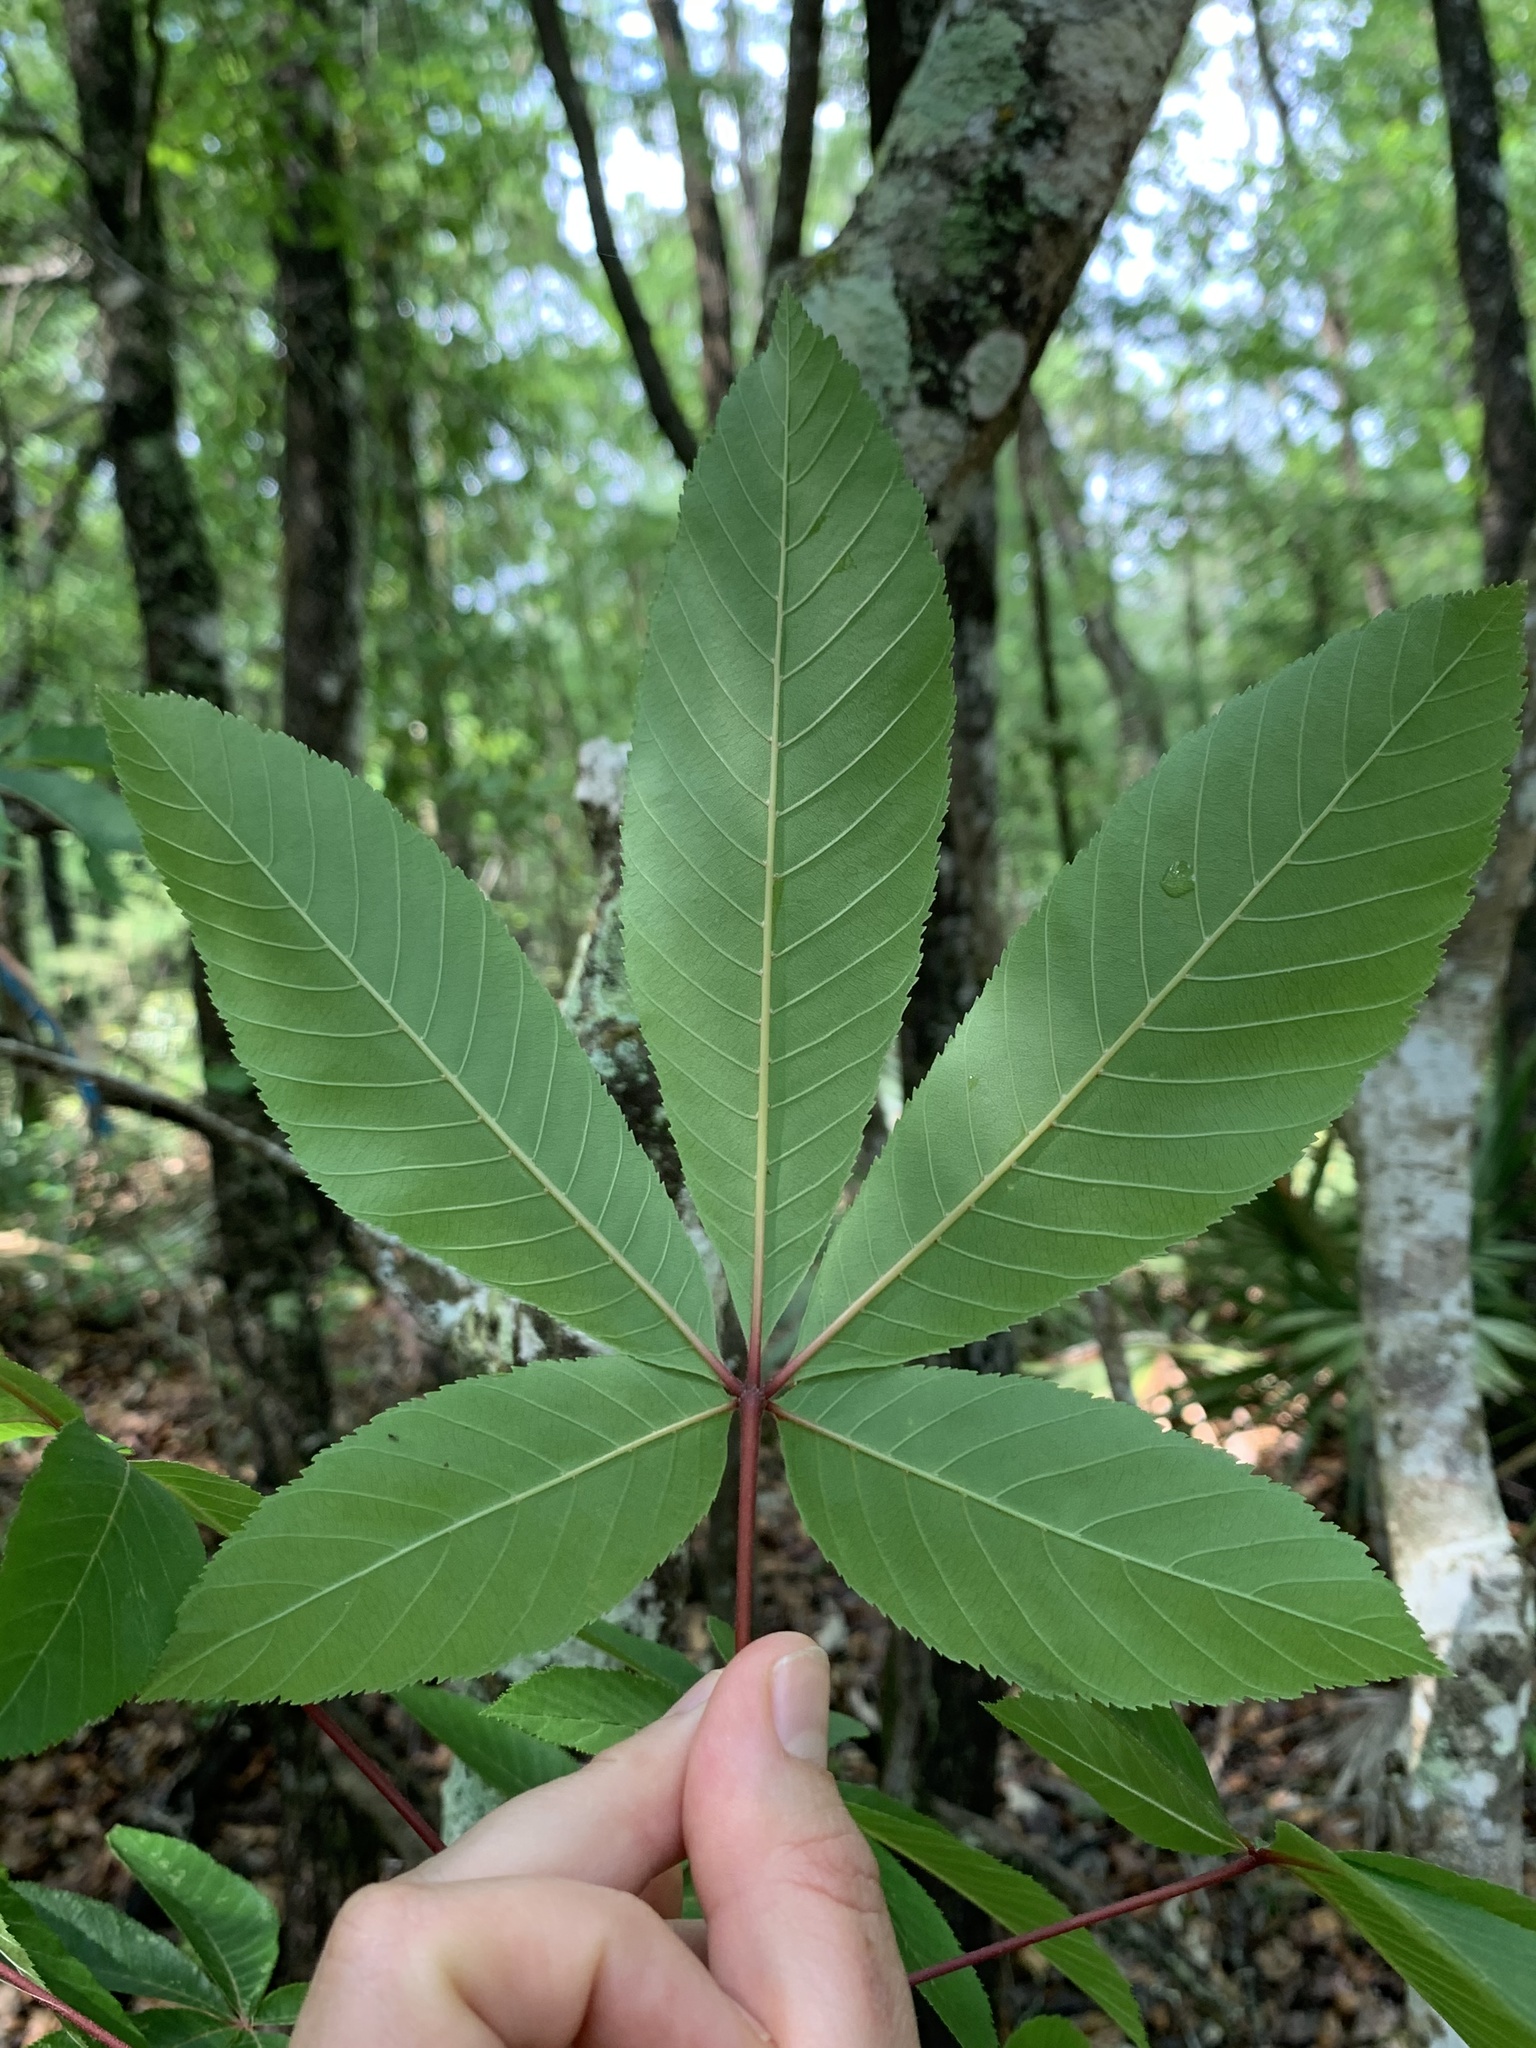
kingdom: Plantae
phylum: Tracheophyta
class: Magnoliopsida
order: Sapindales
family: Sapindaceae
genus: Aesculus
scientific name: Aesculus pavia
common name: Red buckeye
